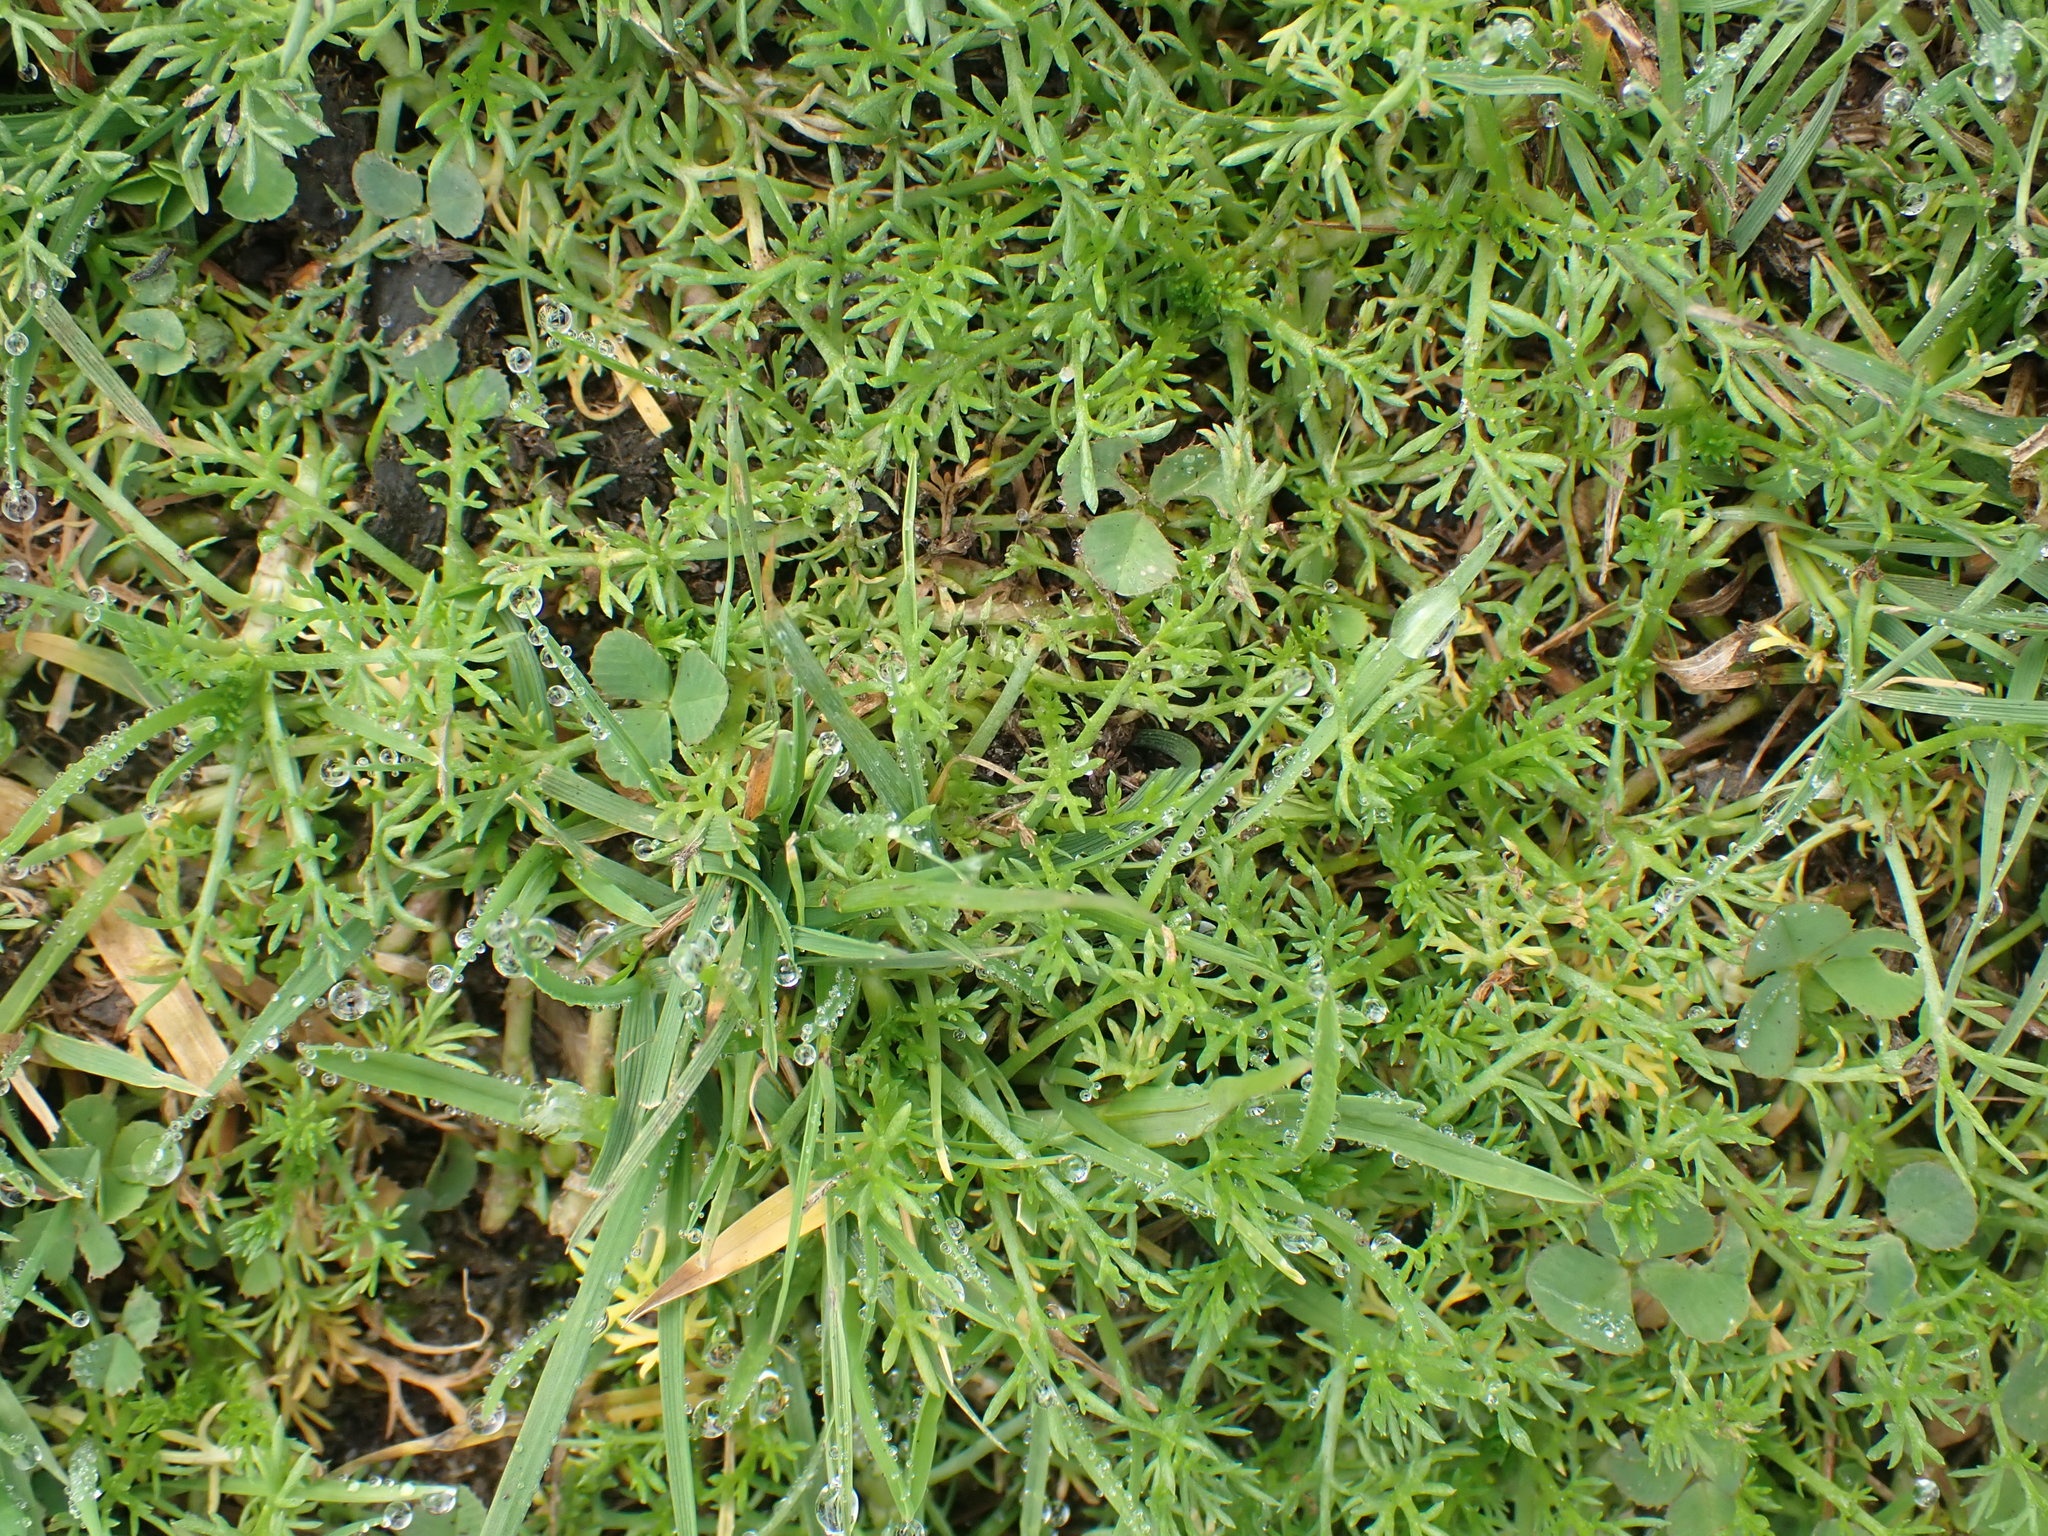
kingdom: Plantae
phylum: Tracheophyta
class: Magnoliopsida
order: Asterales
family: Asteraceae
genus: Chamaemelum
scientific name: Chamaemelum nobile
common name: Roman chamomile
